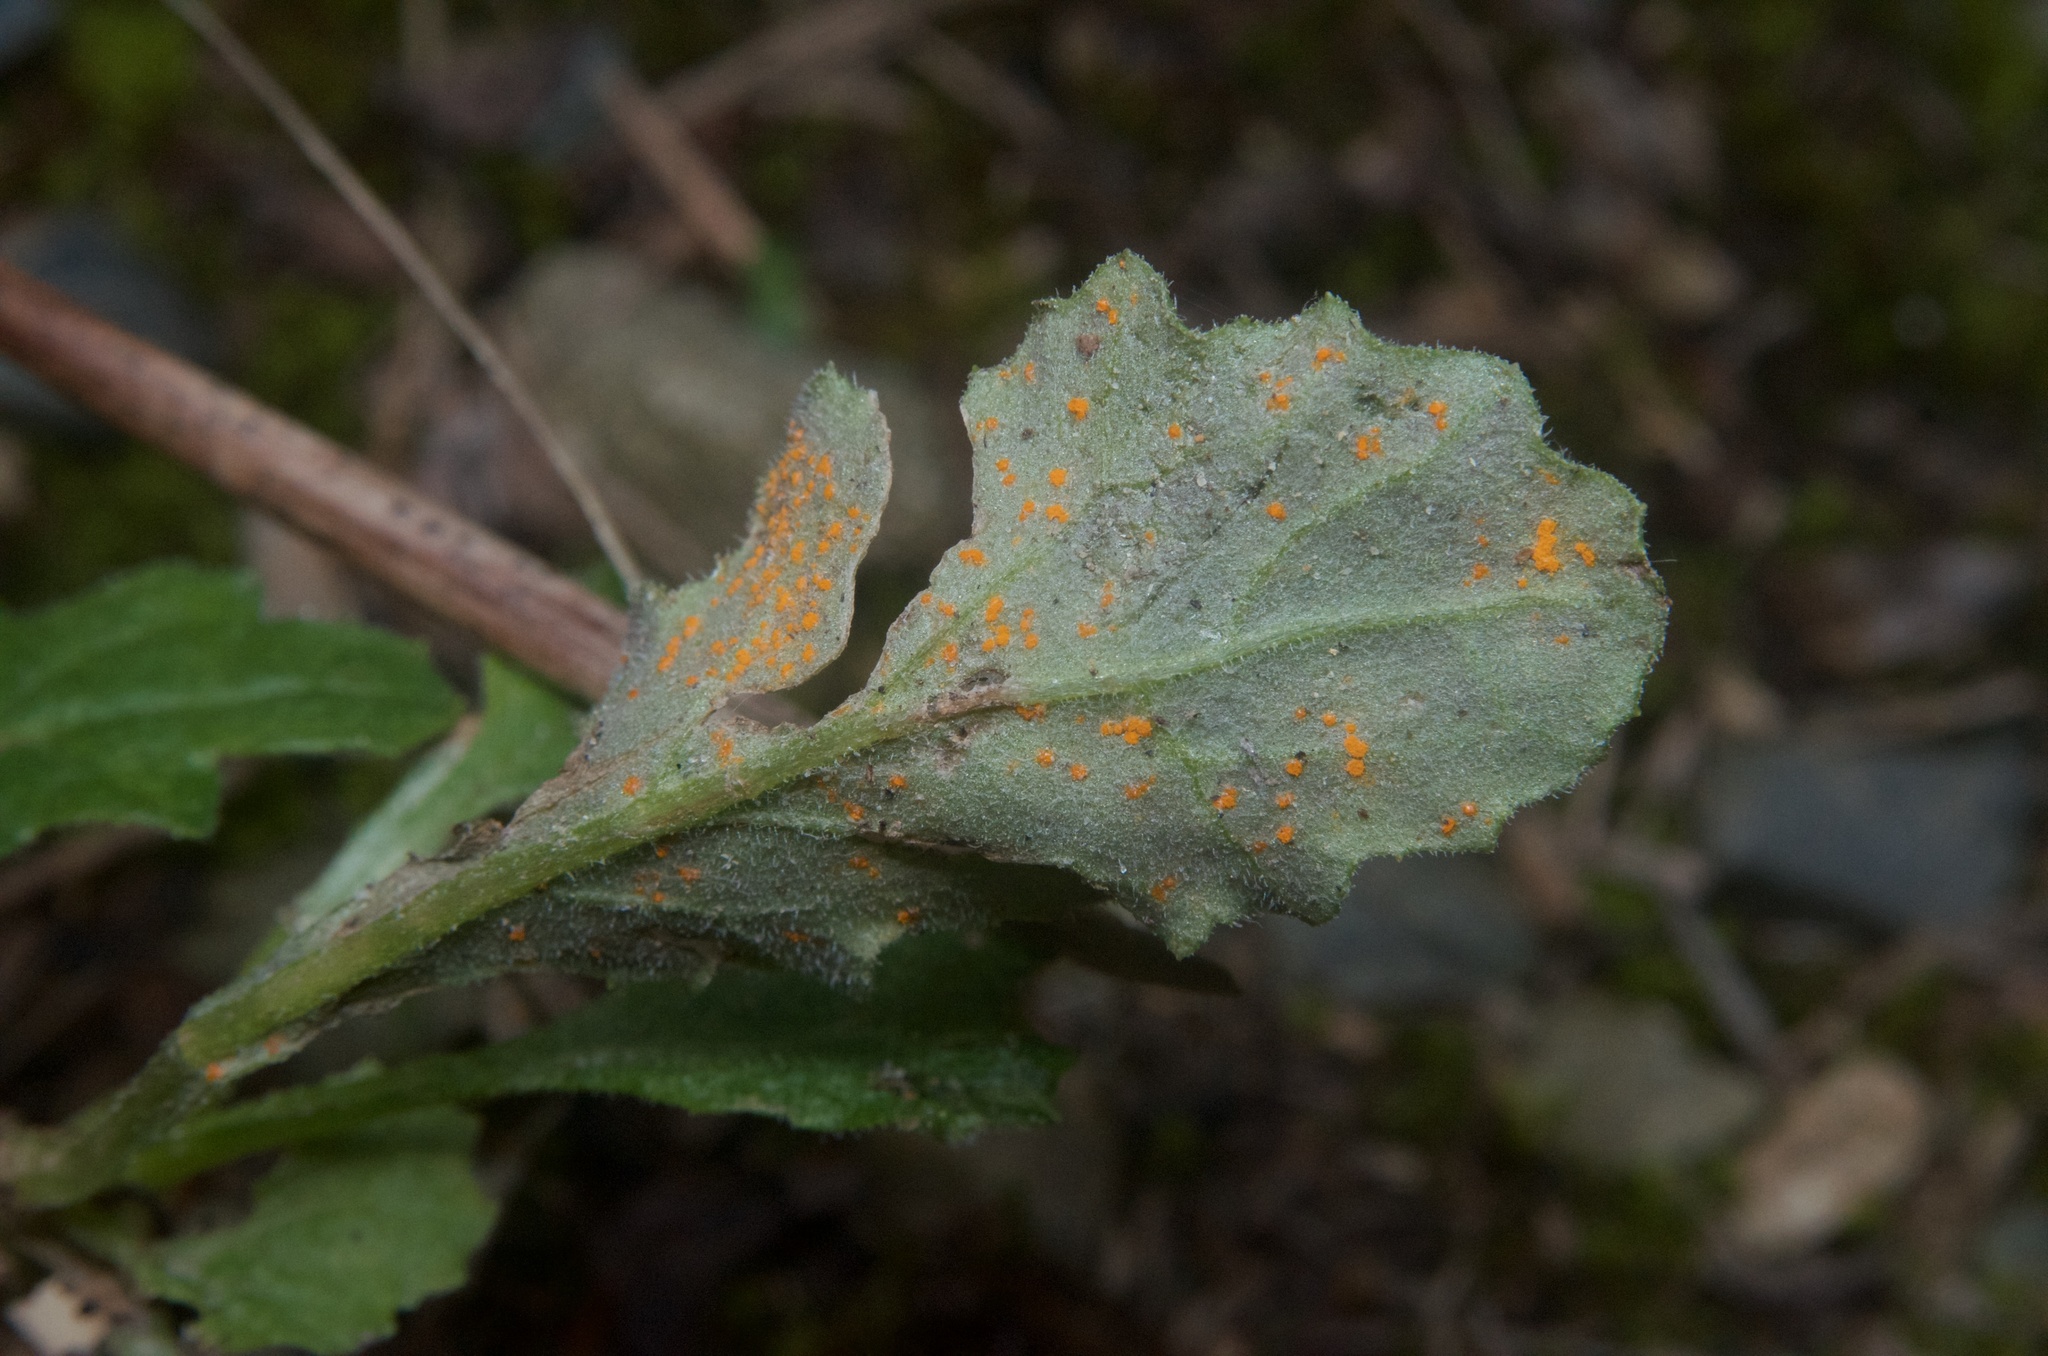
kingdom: Fungi
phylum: Basidiomycota
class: Pucciniomycetes
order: Pucciniales
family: Coleosporiaceae
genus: Coleosporium
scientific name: Coleosporium tussilaginis
